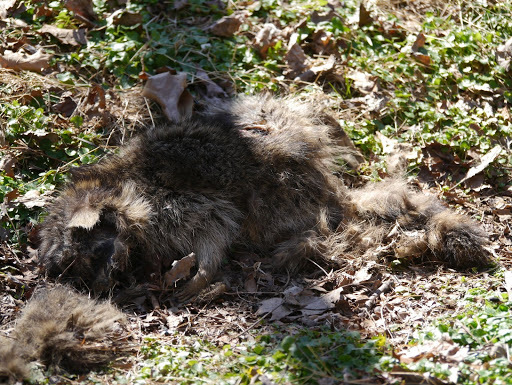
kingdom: Animalia
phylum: Chordata
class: Mammalia
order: Carnivora
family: Procyonidae
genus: Procyon
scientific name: Procyon lotor
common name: Raccoon
